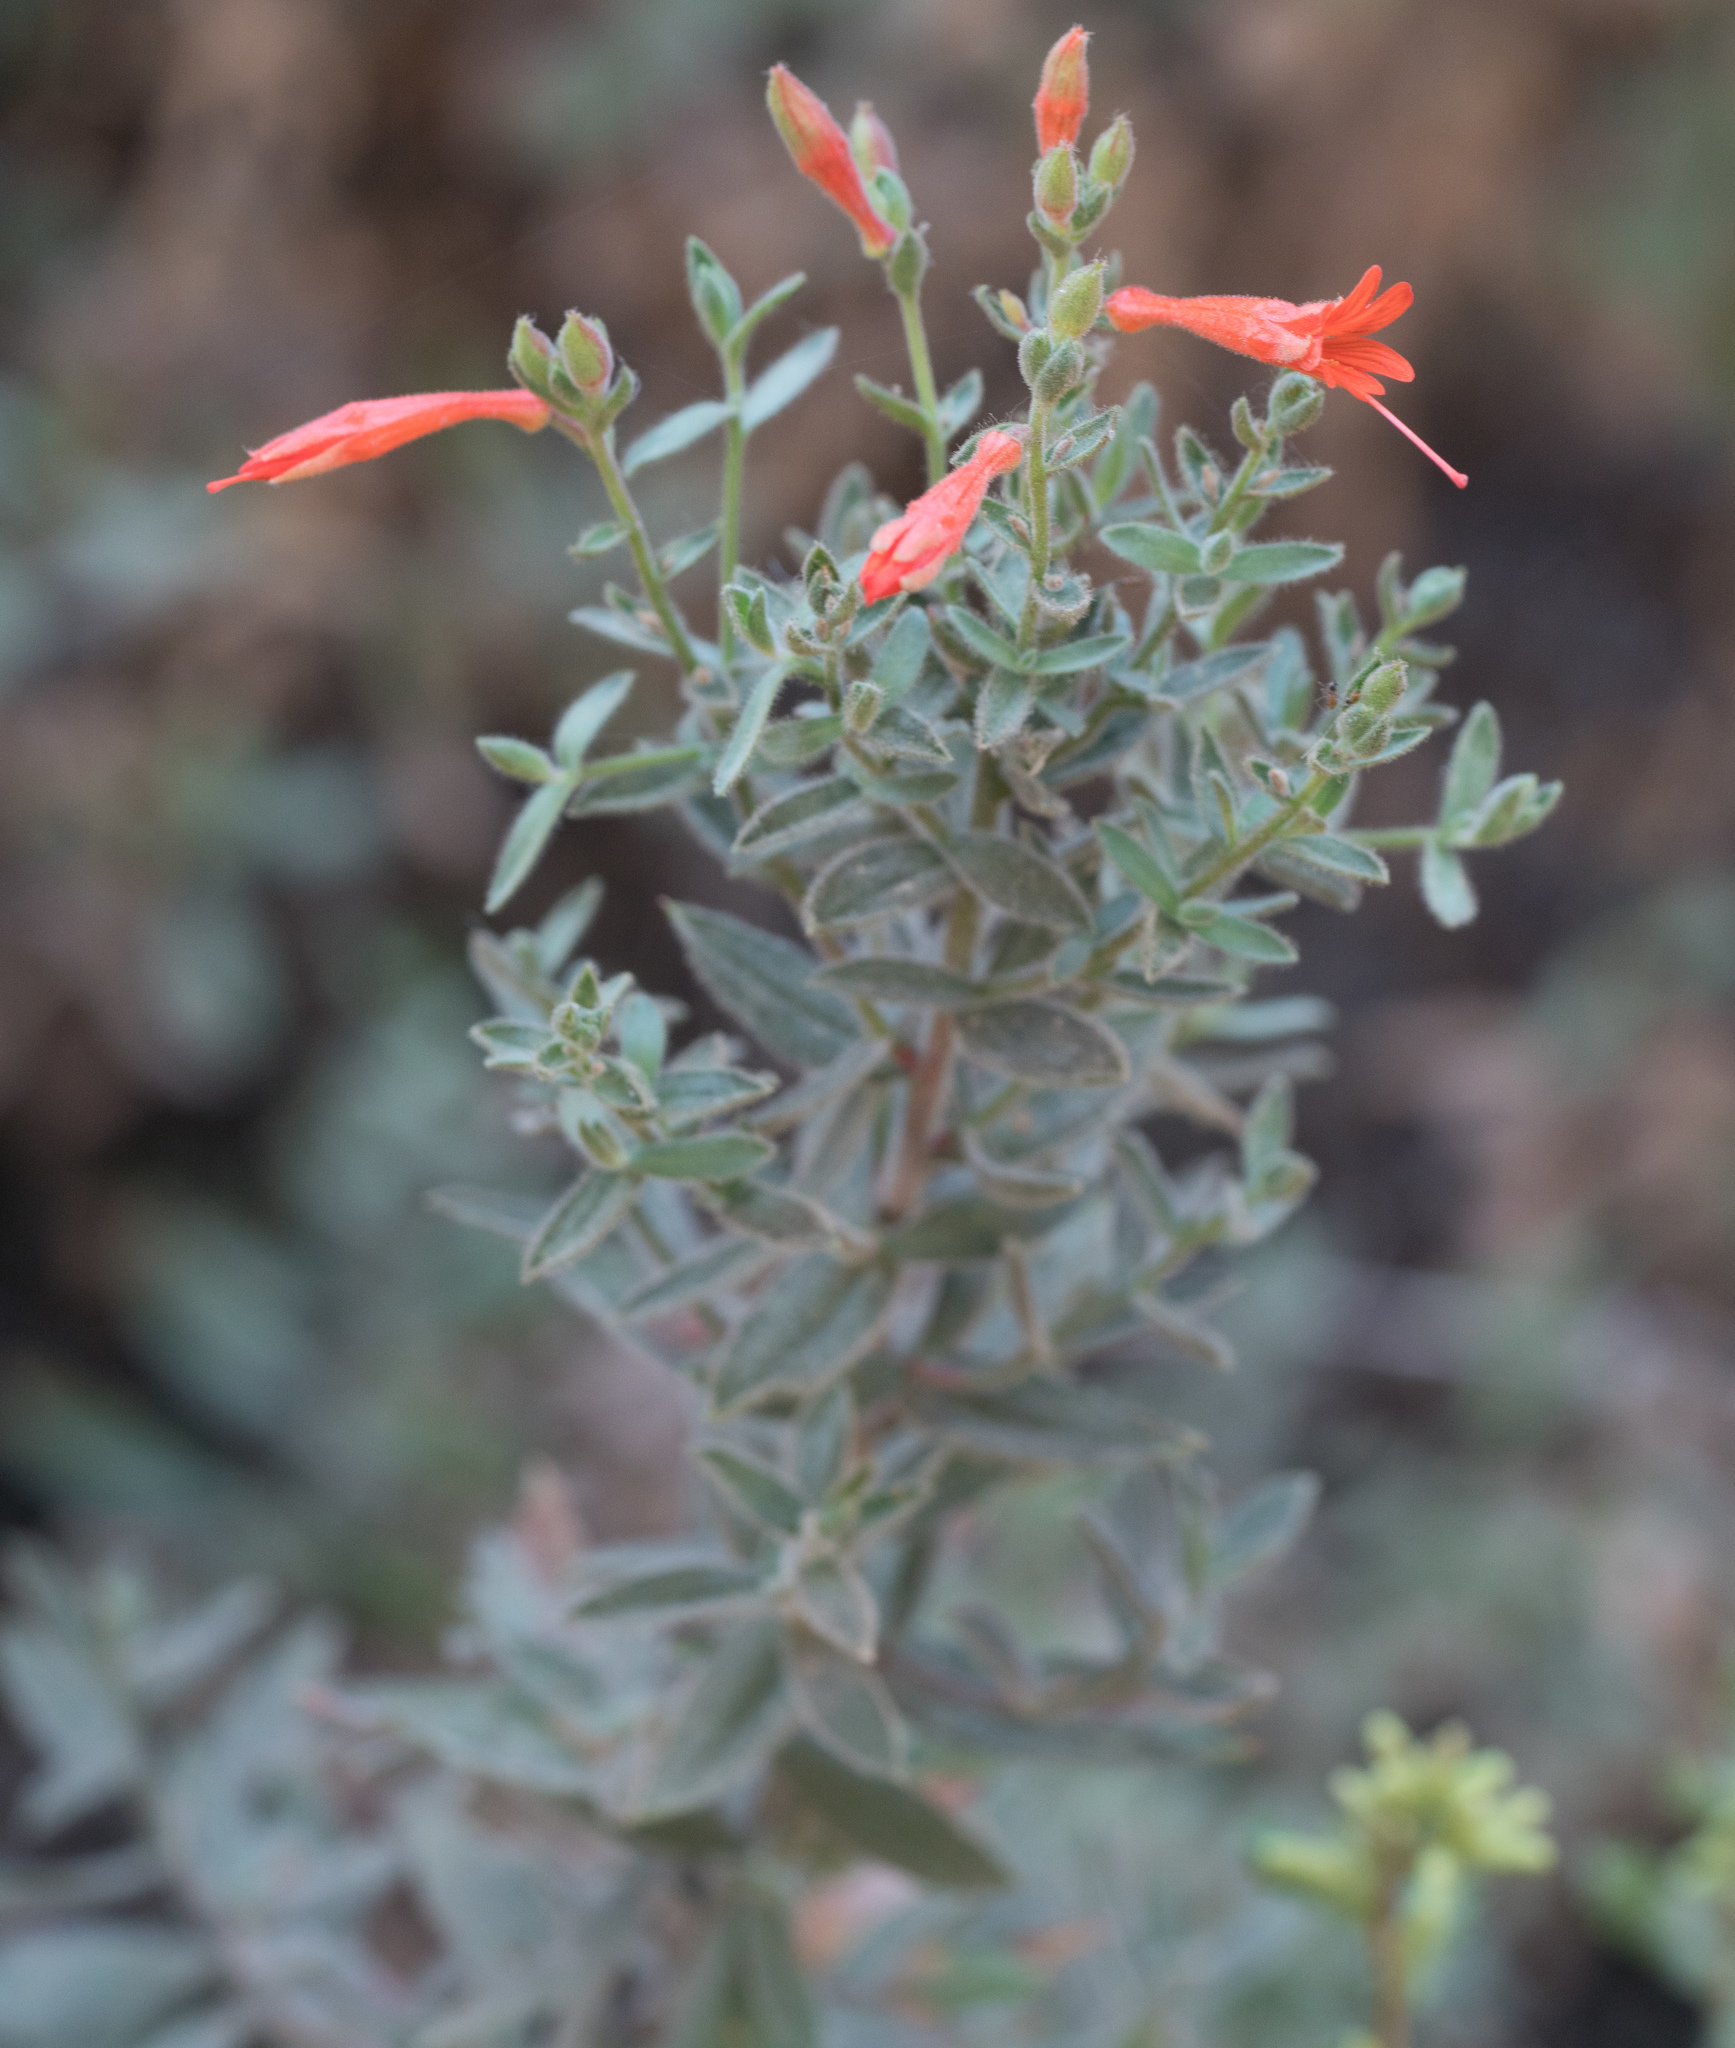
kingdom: Plantae
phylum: Tracheophyta
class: Magnoliopsida
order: Myrtales
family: Onagraceae
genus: Epilobium
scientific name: Epilobium canum
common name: California-fuchsia
